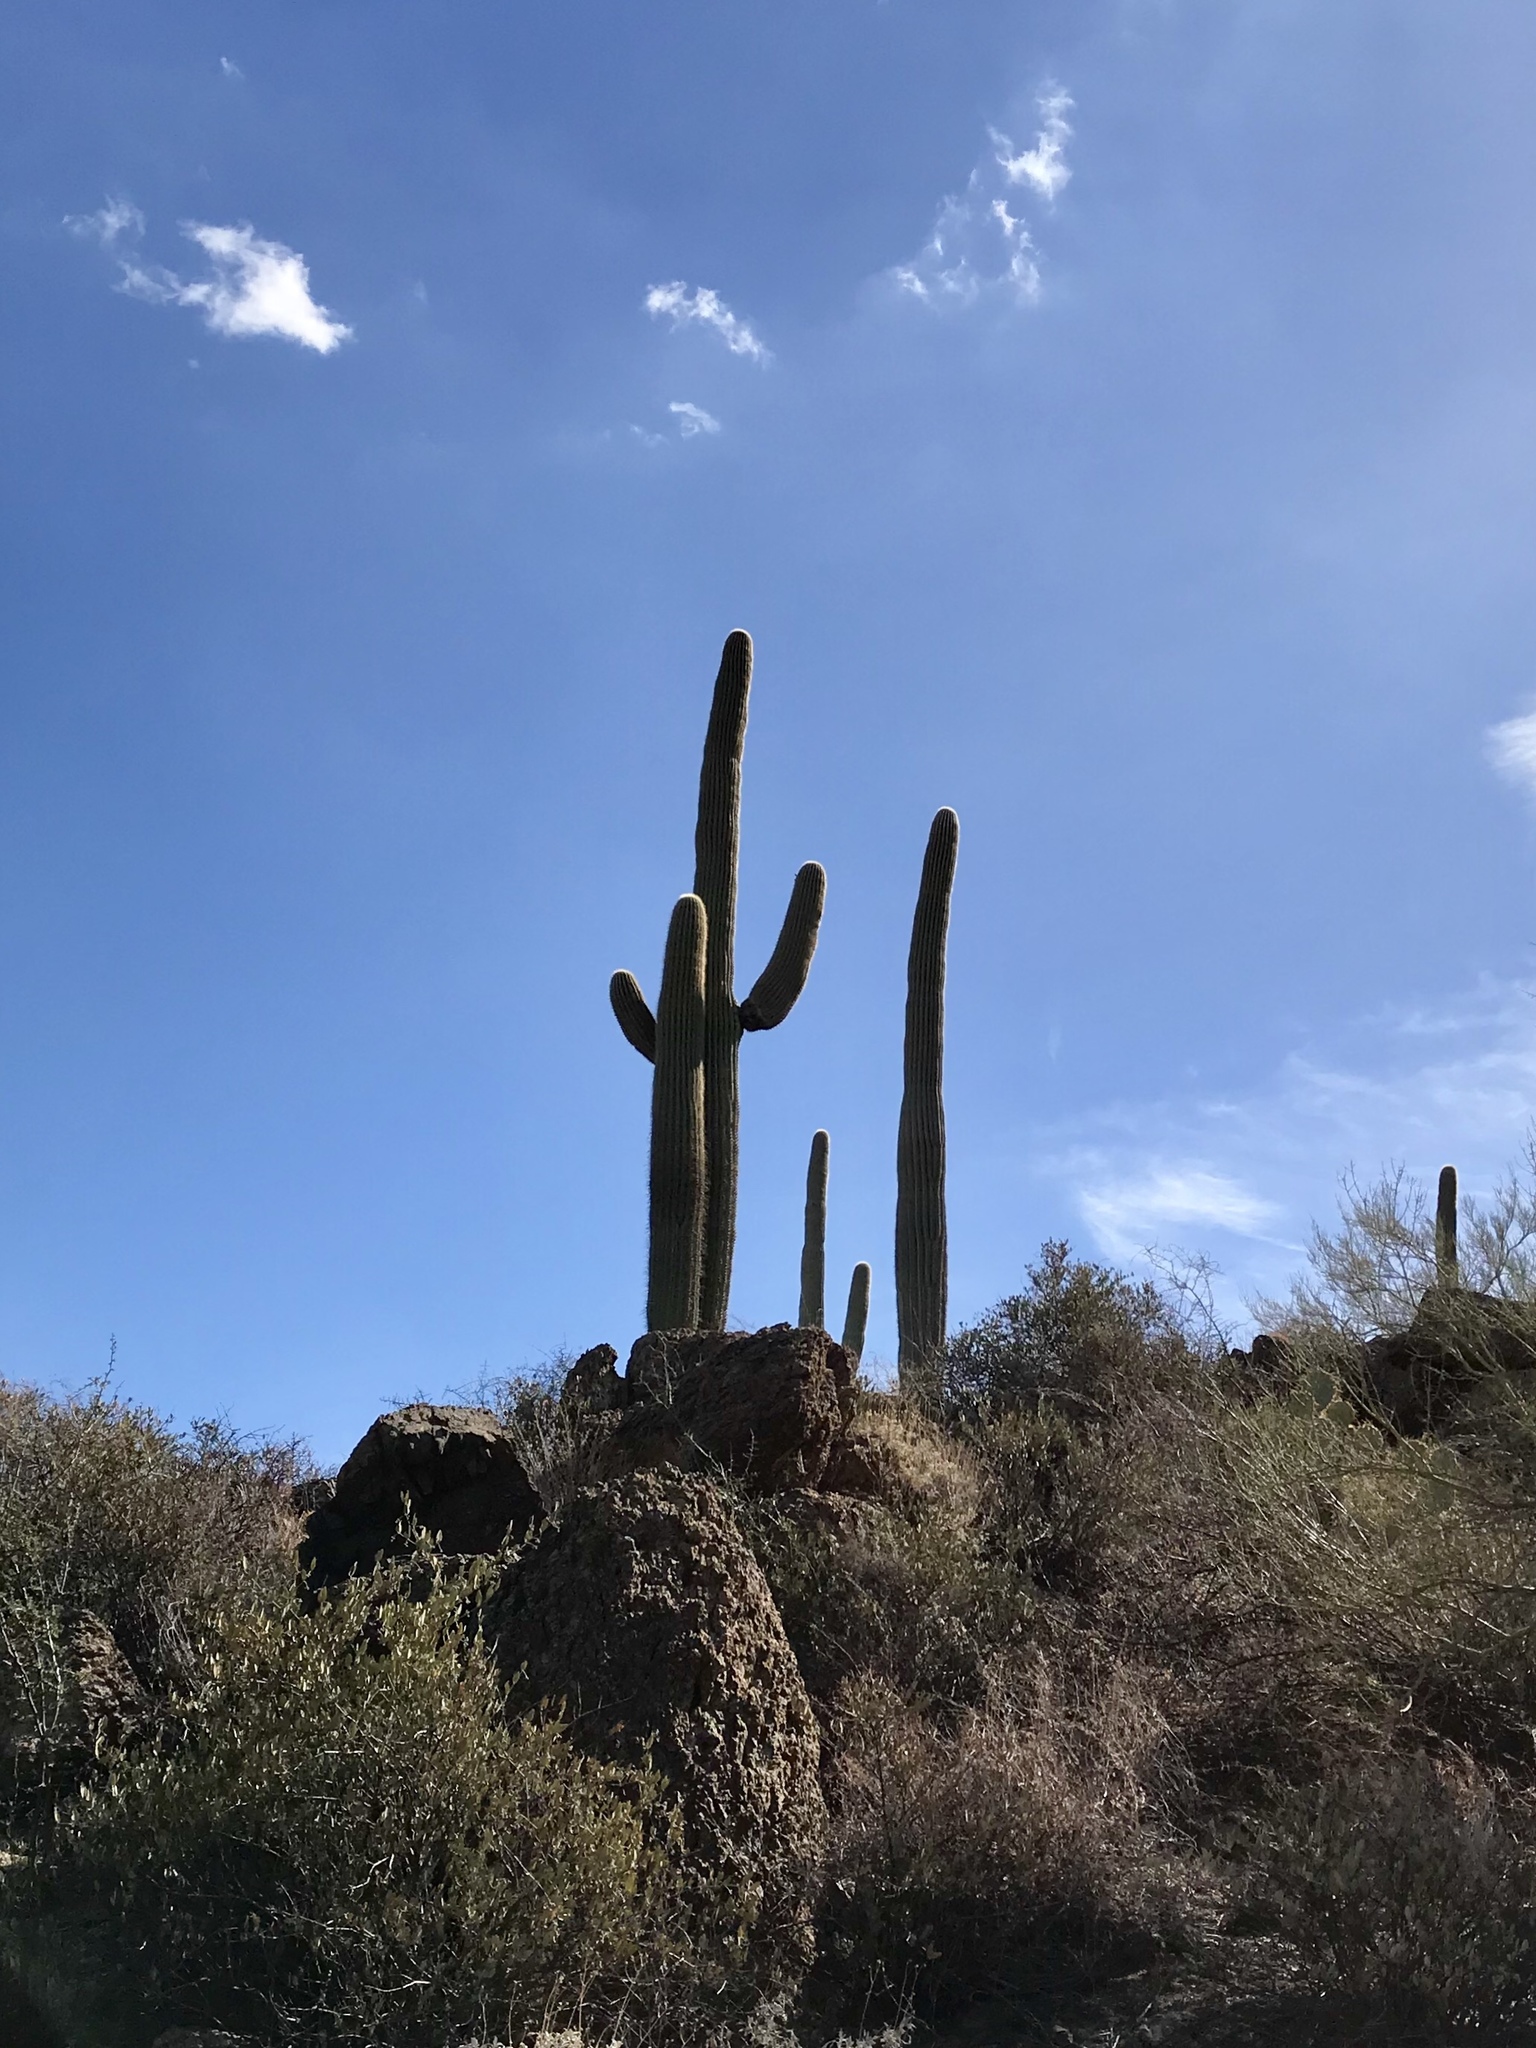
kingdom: Plantae
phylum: Tracheophyta
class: Magnoliopsida
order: Caryophyllales
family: Cactaceae
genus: Carnegiea
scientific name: Carnegiea gigantea
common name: Saguaro
